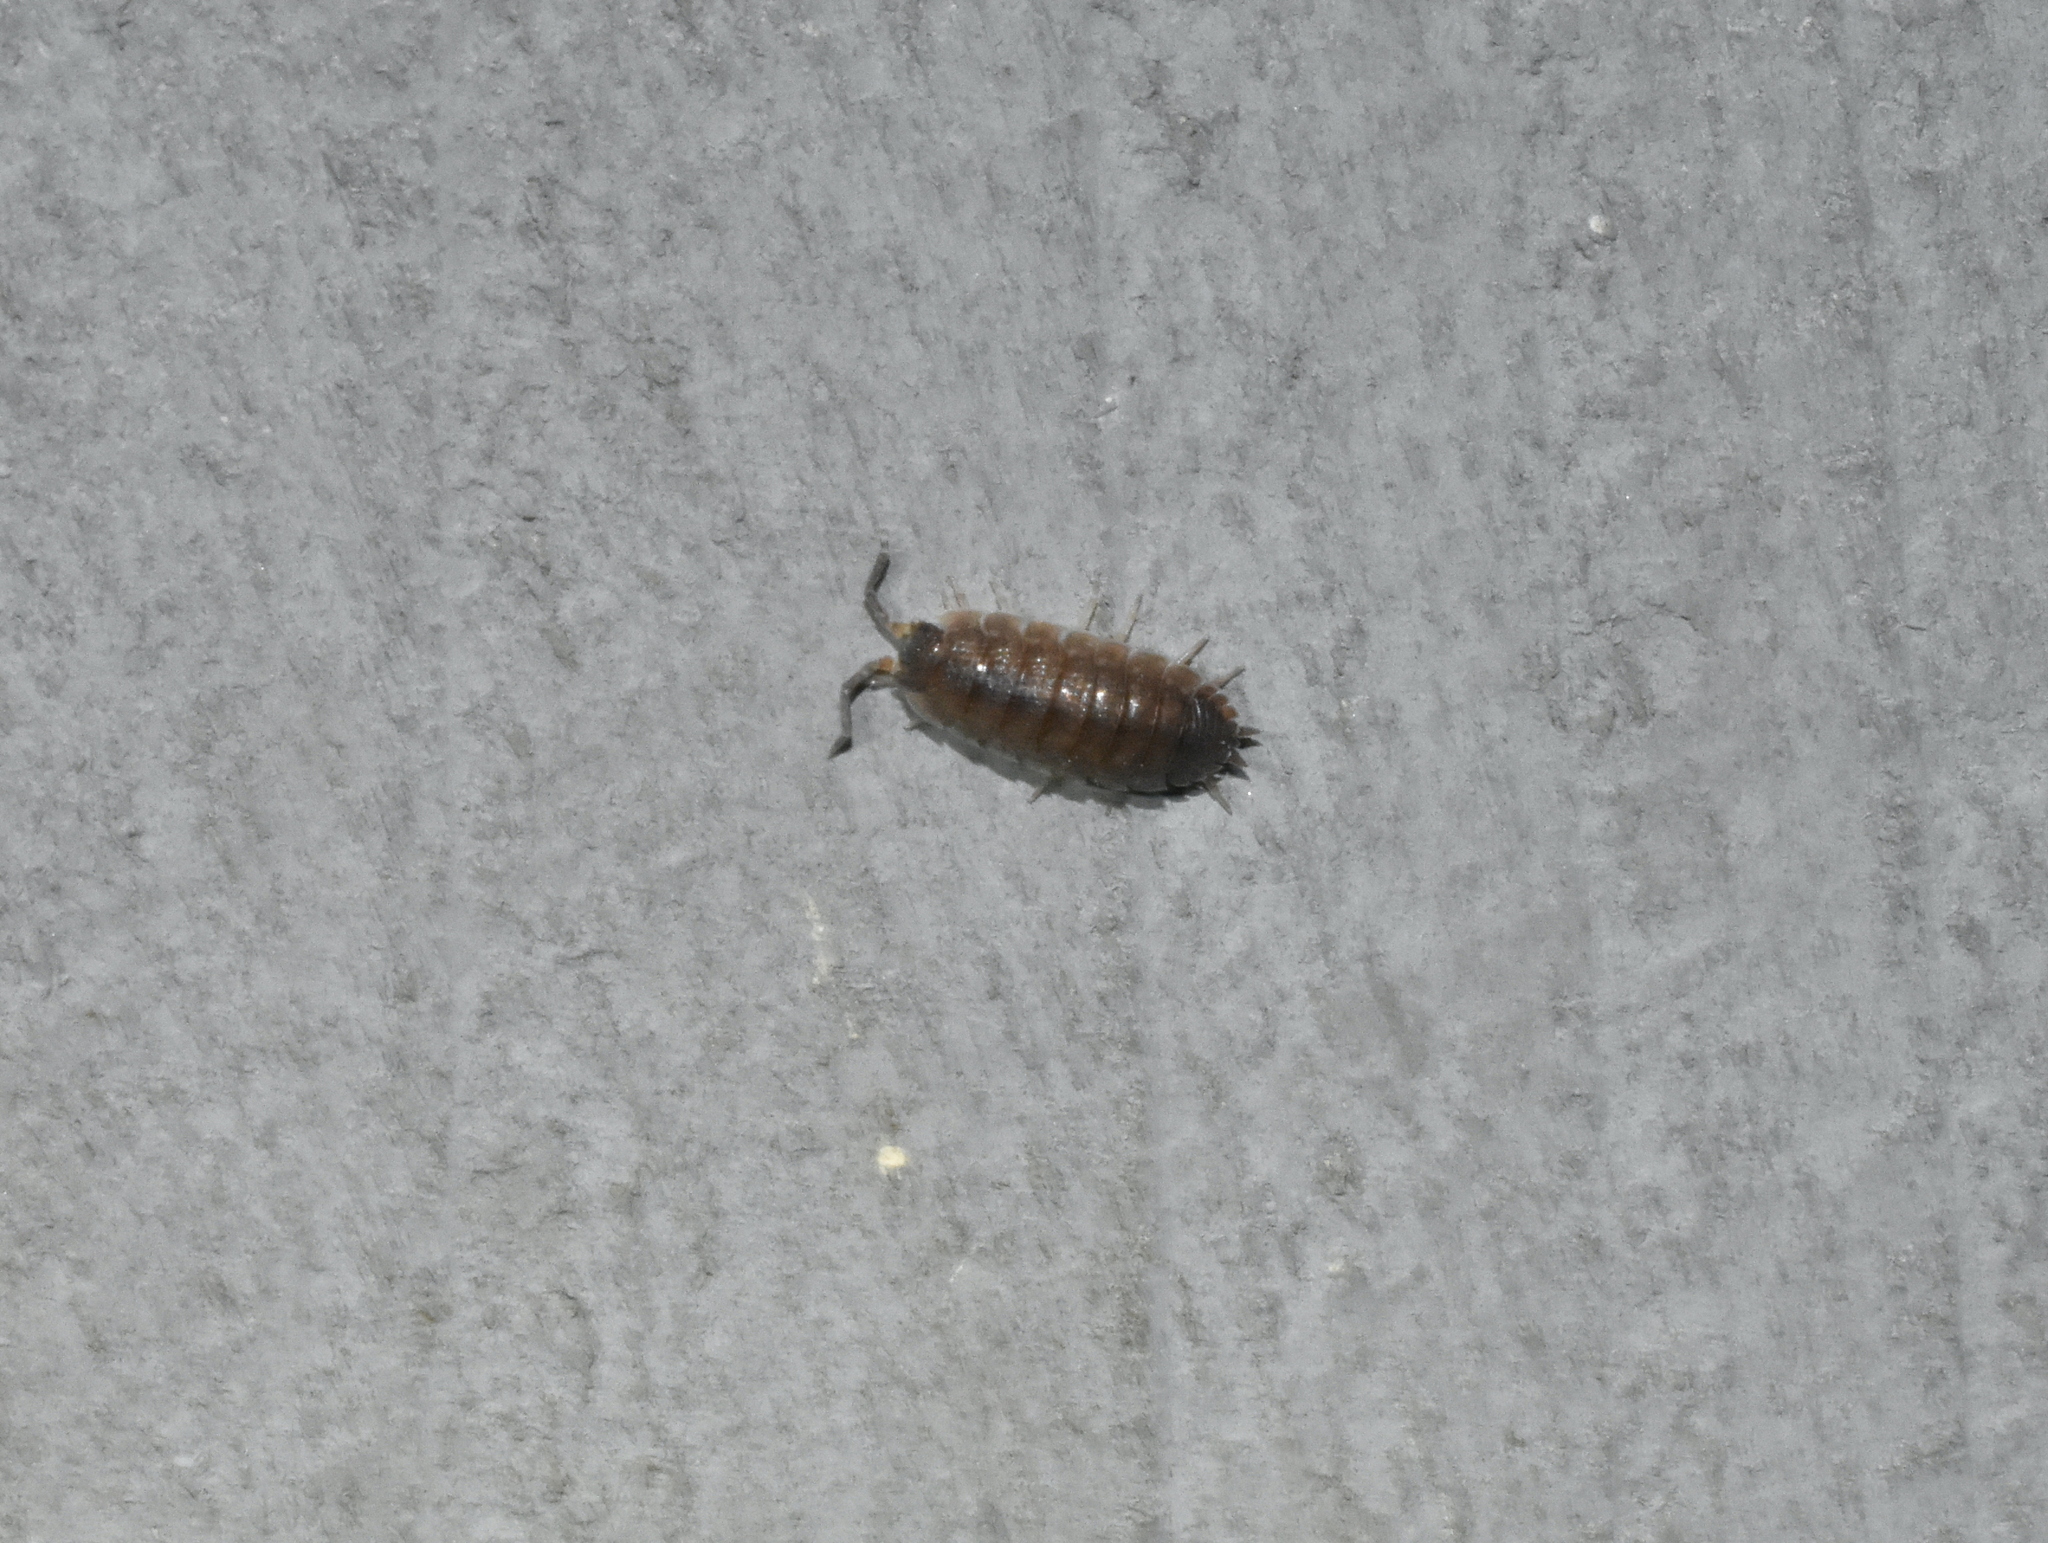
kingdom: Animalia
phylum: Arthropoda
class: Malacostraca
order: Isopoda
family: Porcellionidae
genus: Porcellio
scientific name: Porcellio scaber
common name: Common rough woodlouse
